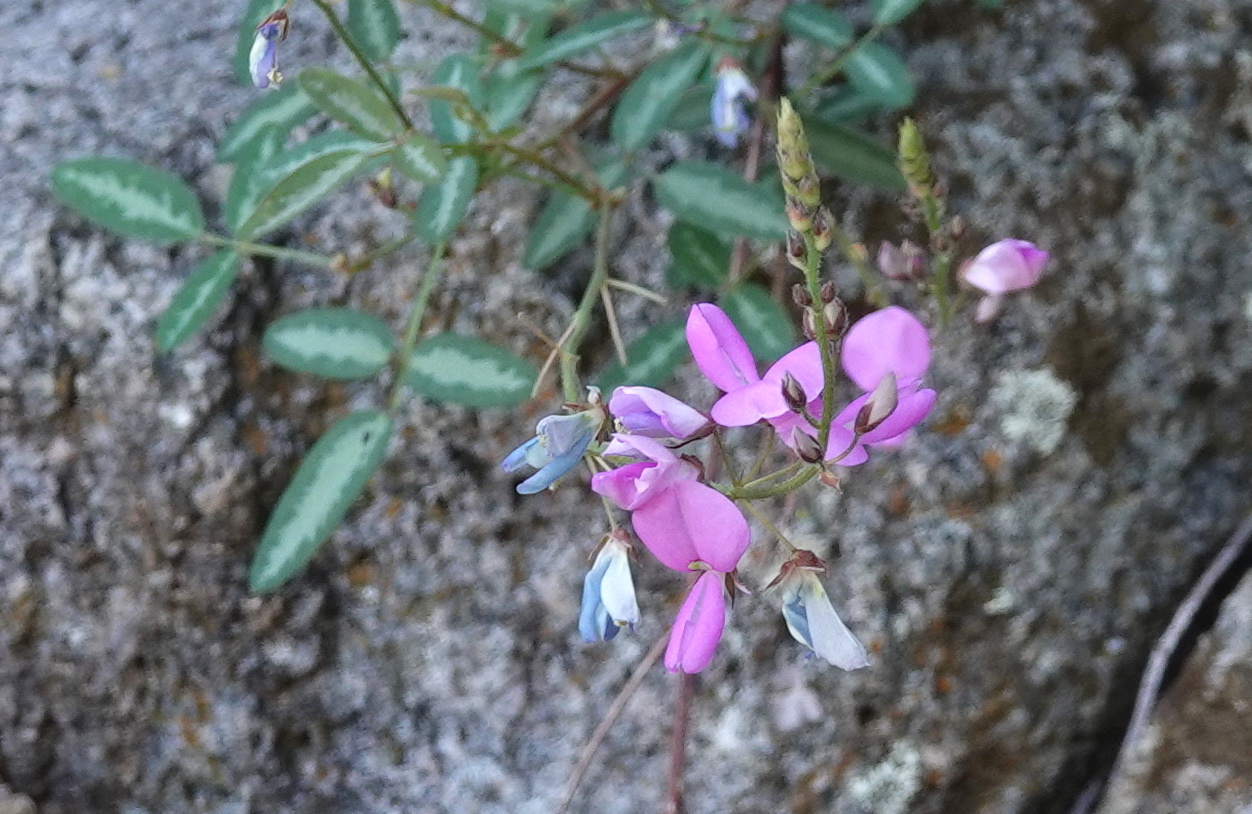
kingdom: Plantae
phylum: Tracheophyta
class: Magnoliopsida
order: Fabales
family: Fabaceae
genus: Desmodium
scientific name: Desmodium batocaulon
